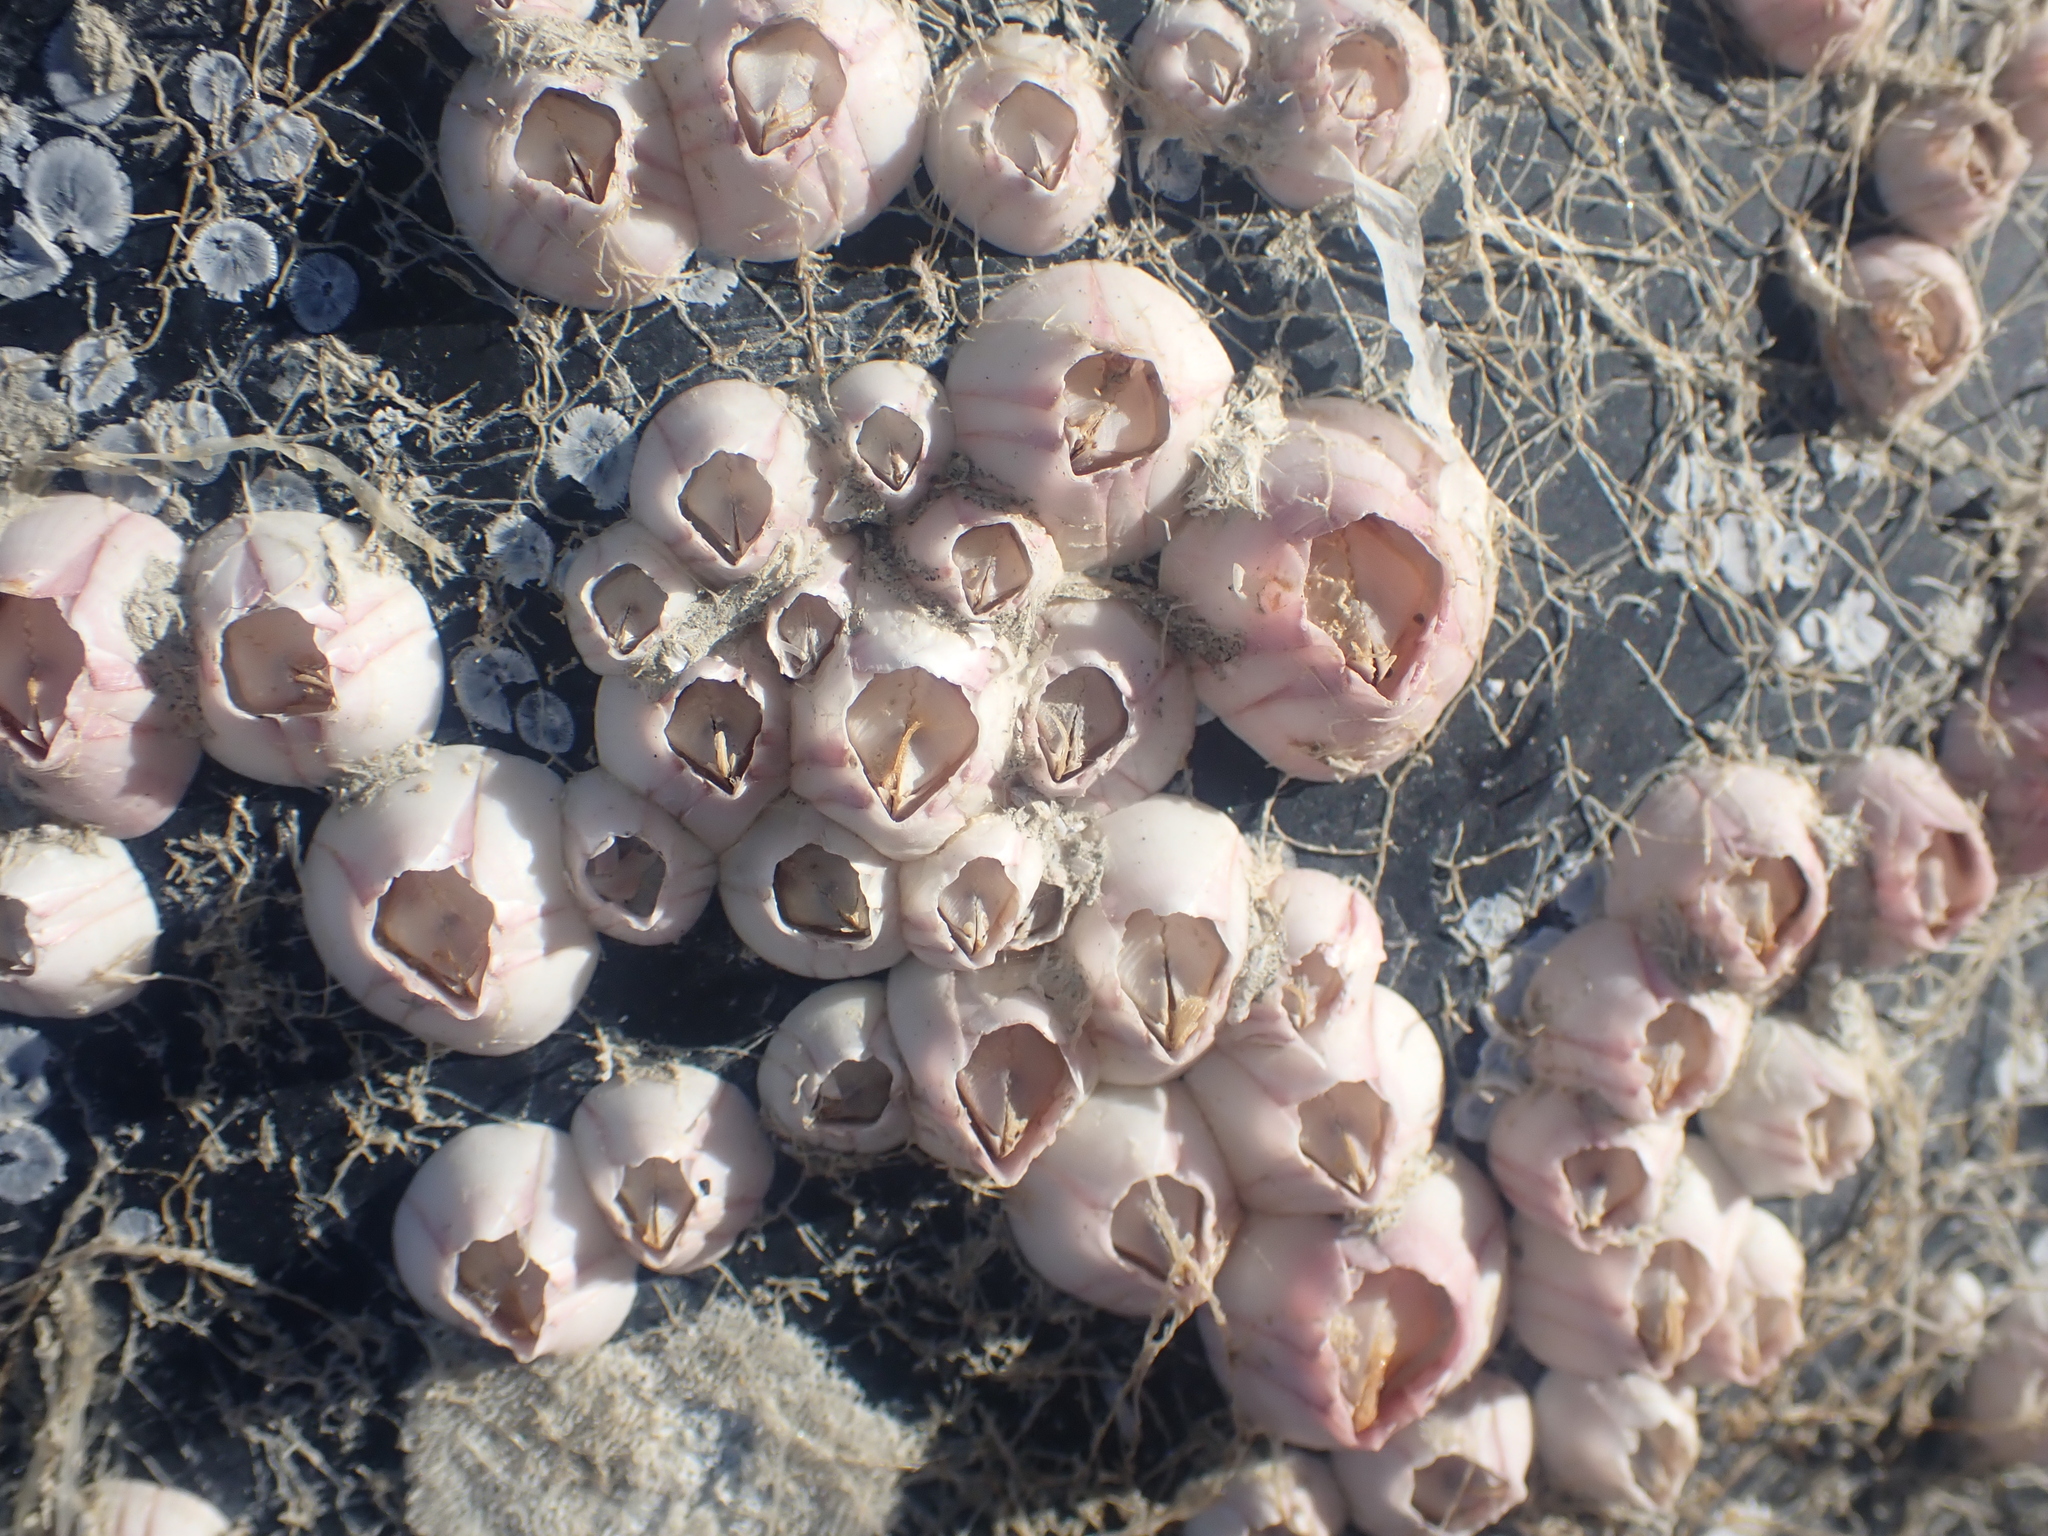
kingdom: Animalia
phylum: Arthropoda
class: Maxillopoda
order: Sessilia
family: Balanidae
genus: Notomegabalanus
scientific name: Notomegabalanus decorus
